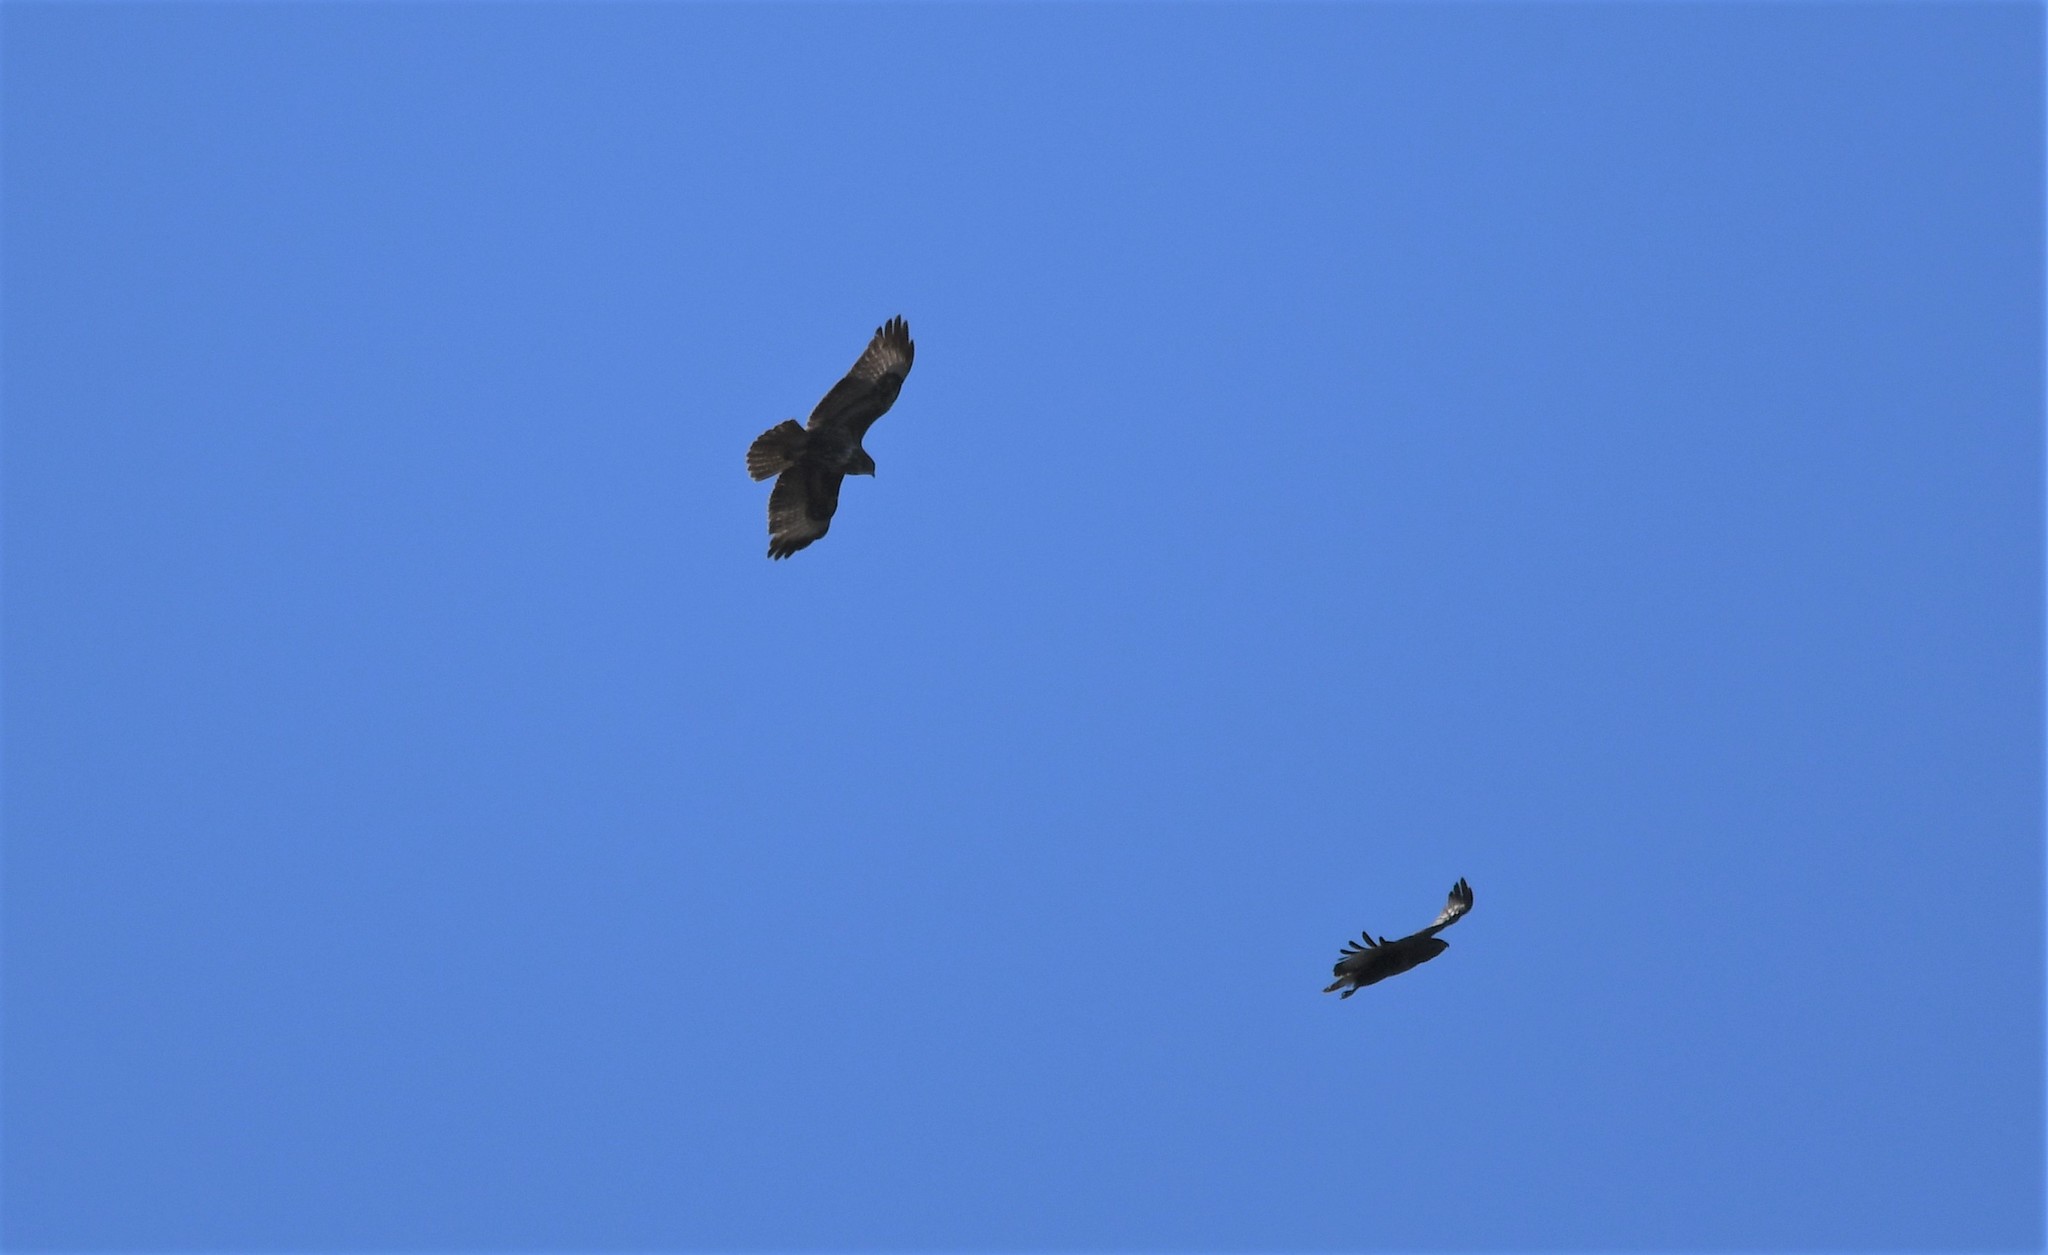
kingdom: Animalia
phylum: Chordata
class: Aves
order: Accipitriformes
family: Accipitridae
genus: Buteo
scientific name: Buteo buteo
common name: Common buzzard
